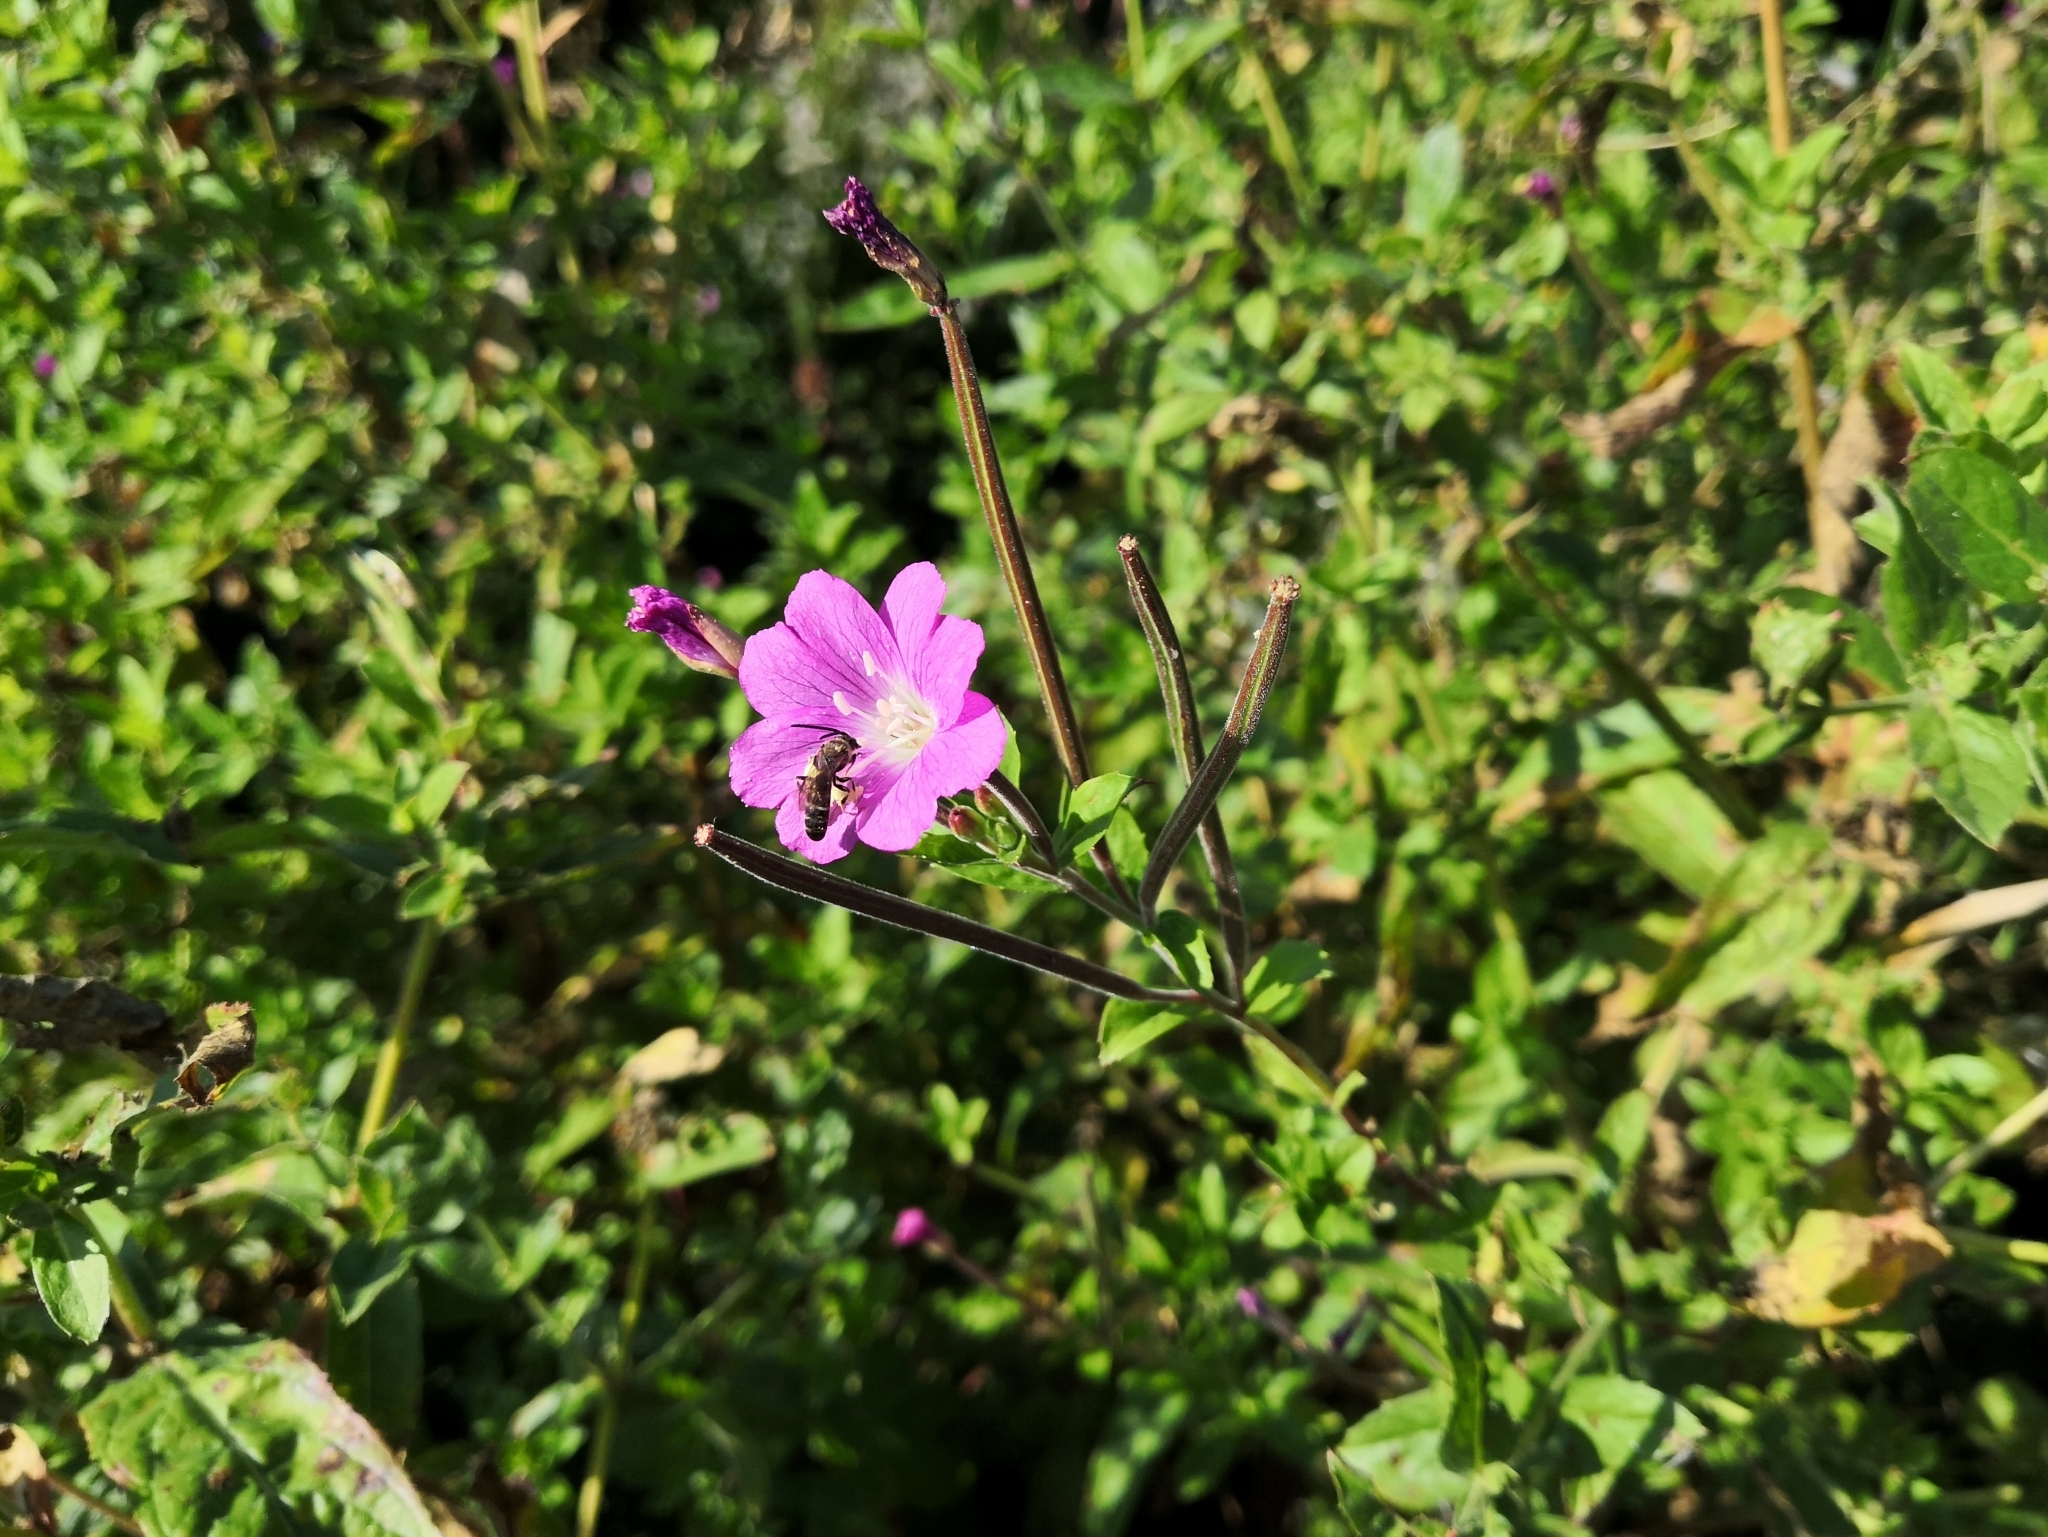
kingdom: Plantae
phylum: Tracheophyta
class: Magnoliopsida
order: Myrtales
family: Onagraceae
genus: Epilobium
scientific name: Epilobium hirsutum
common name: Great willowherb
